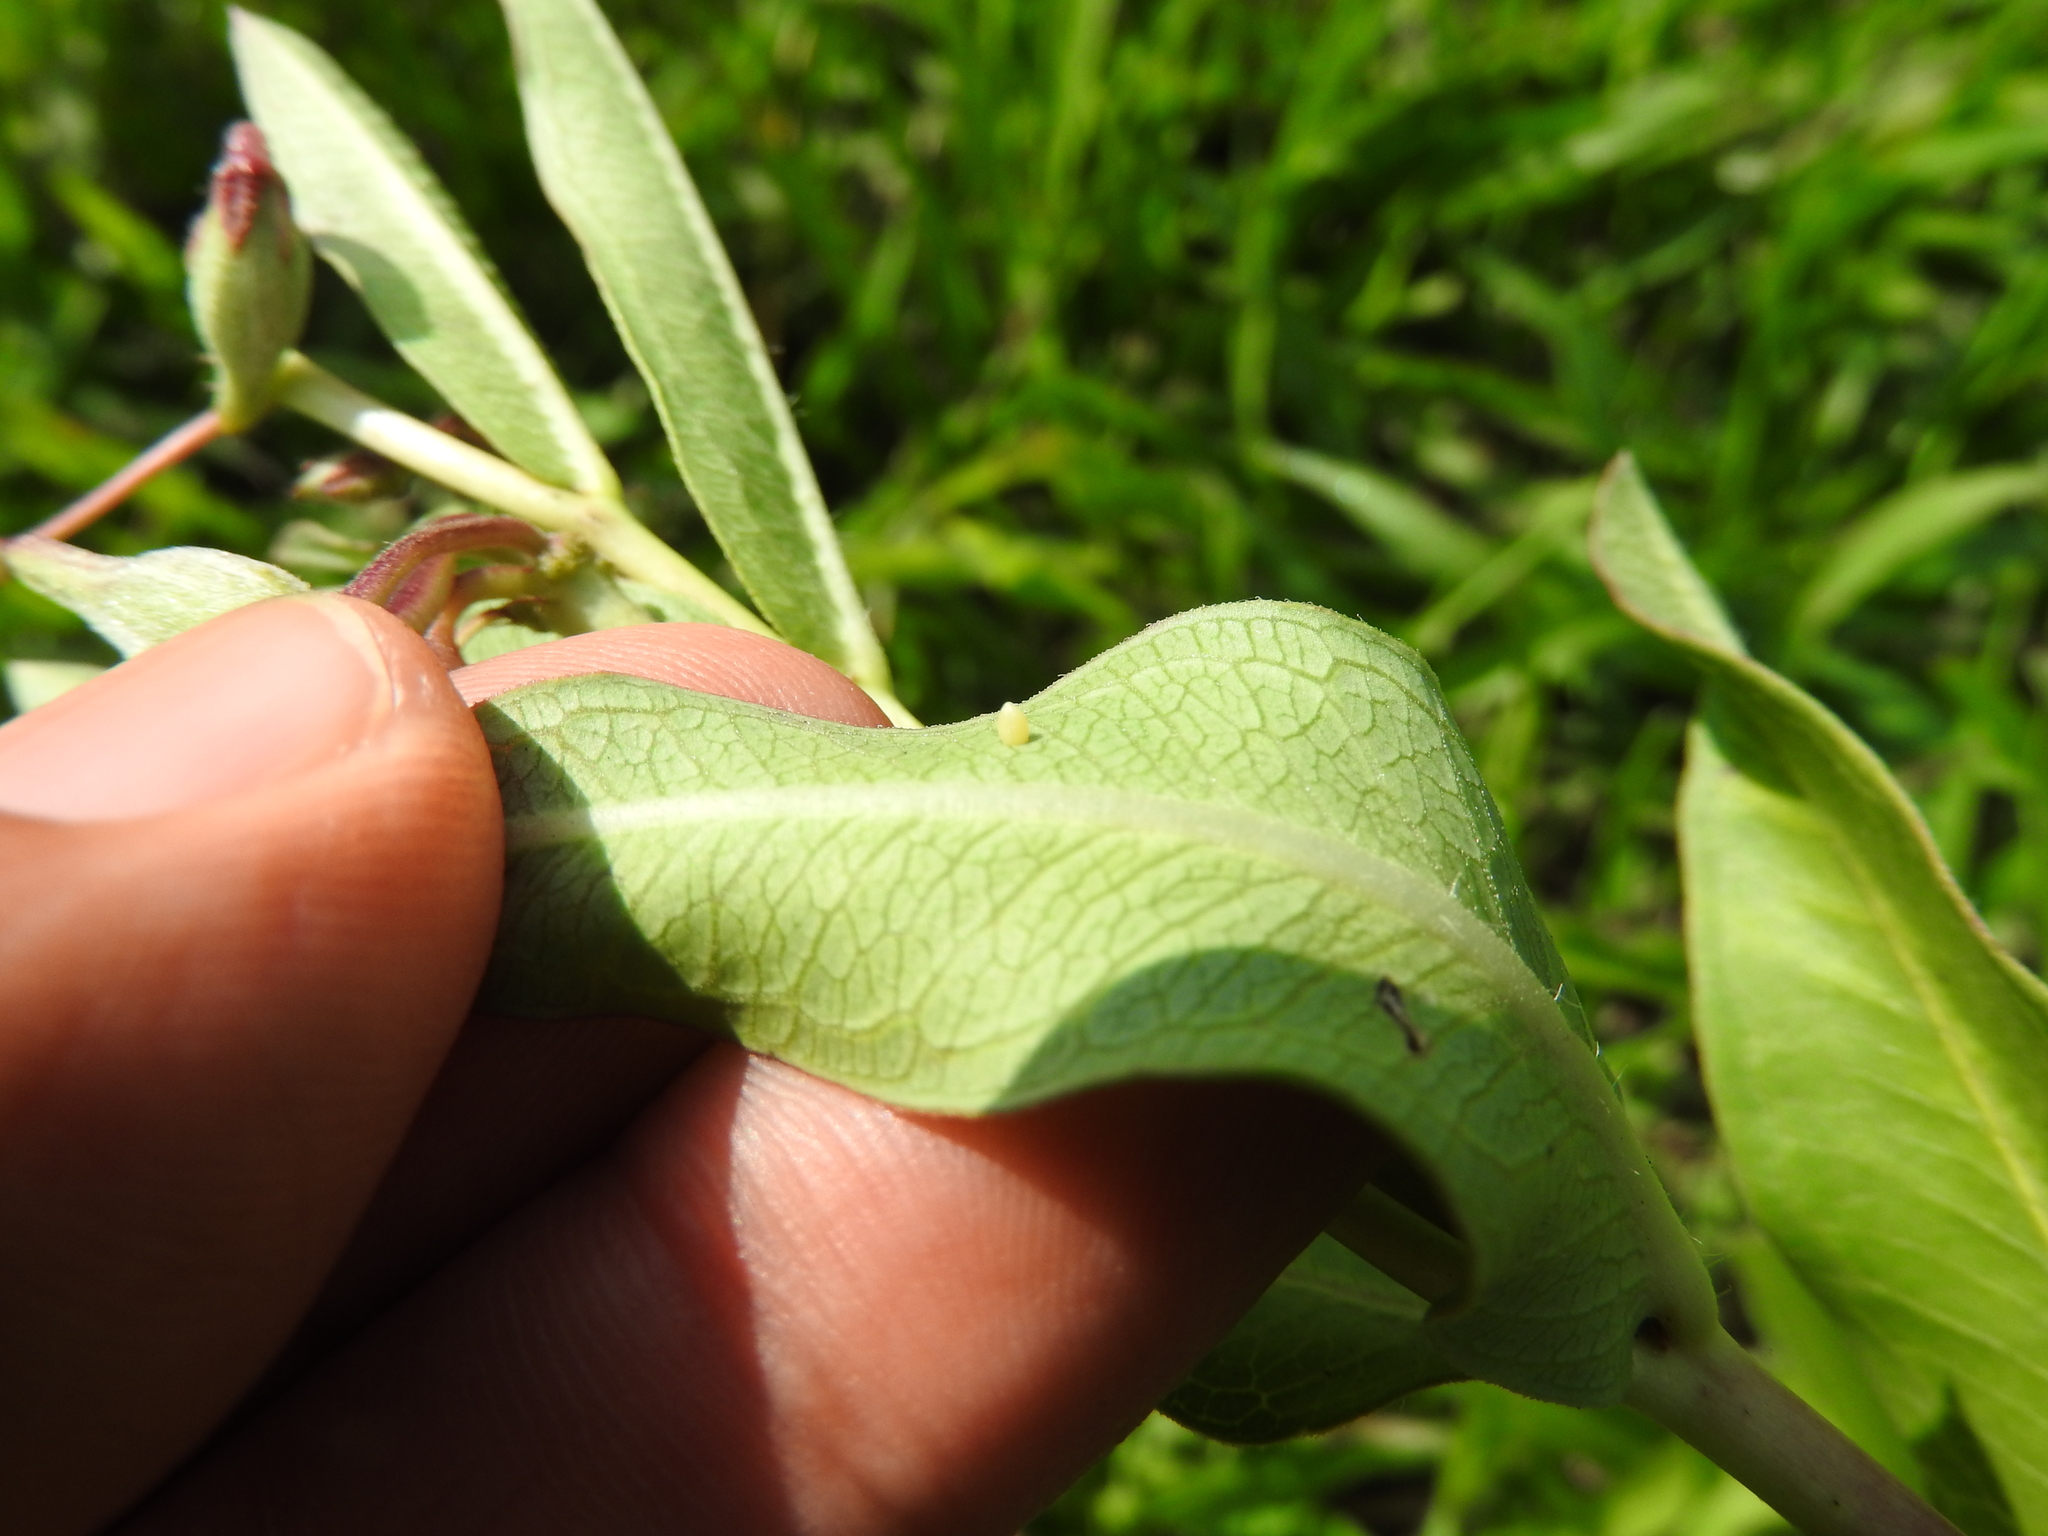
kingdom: Animalia
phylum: Arthropoda
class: Insecta
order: Lepidoptera
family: Nymphalidae
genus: Danaus
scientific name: Danaus plexippus
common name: Monarch
